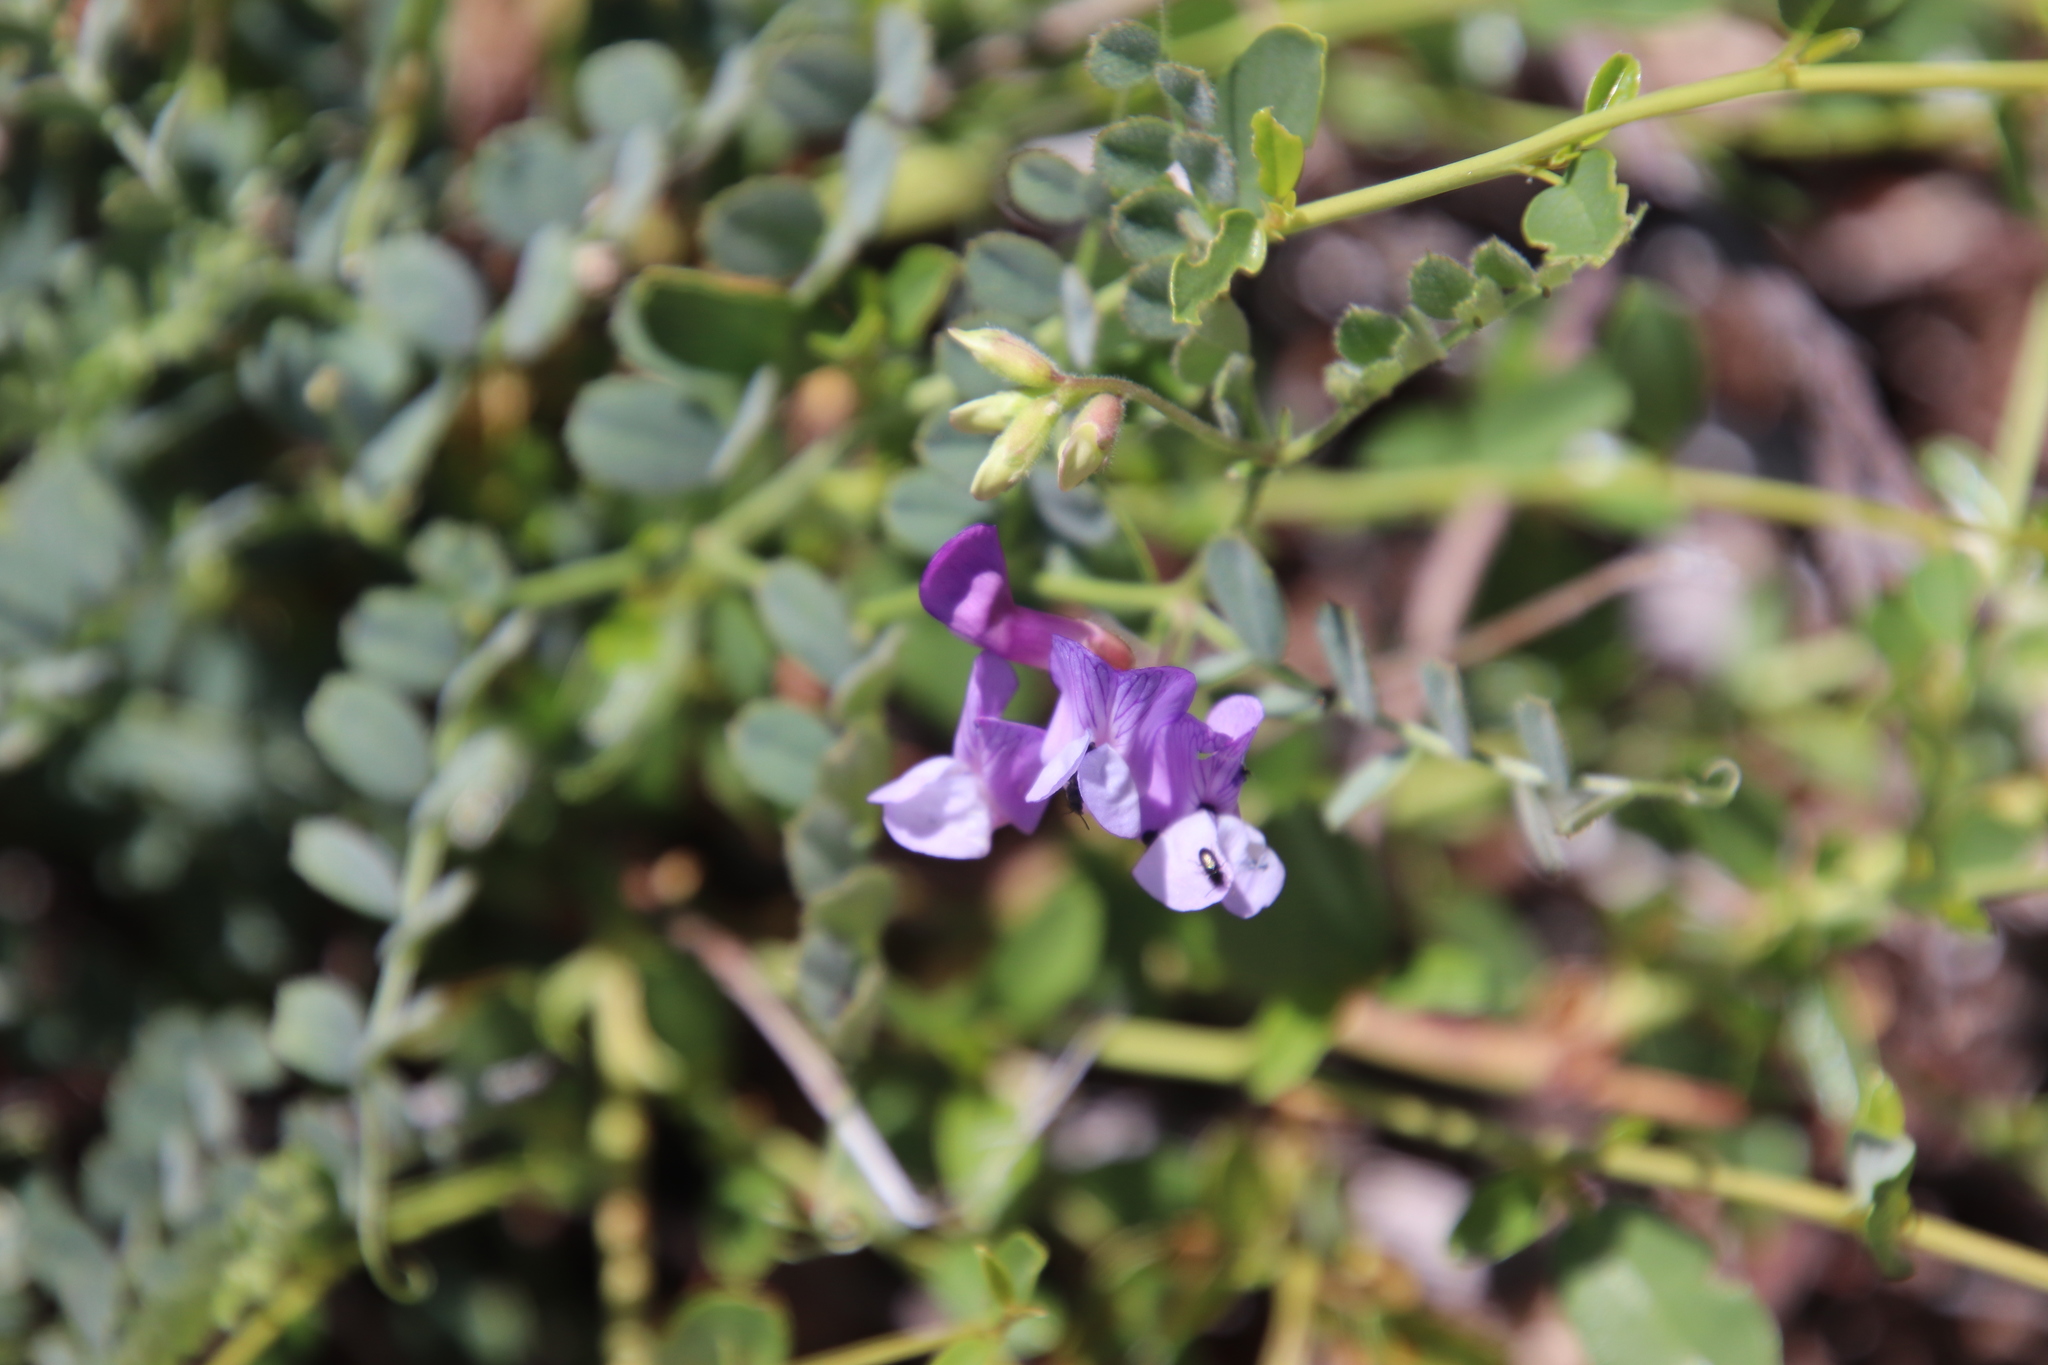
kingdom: Plantae
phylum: Tracheophyta
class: Magnoliopsida
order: Fabales
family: Fabaceae
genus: Vicia
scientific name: Vicia americana
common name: American vetch
